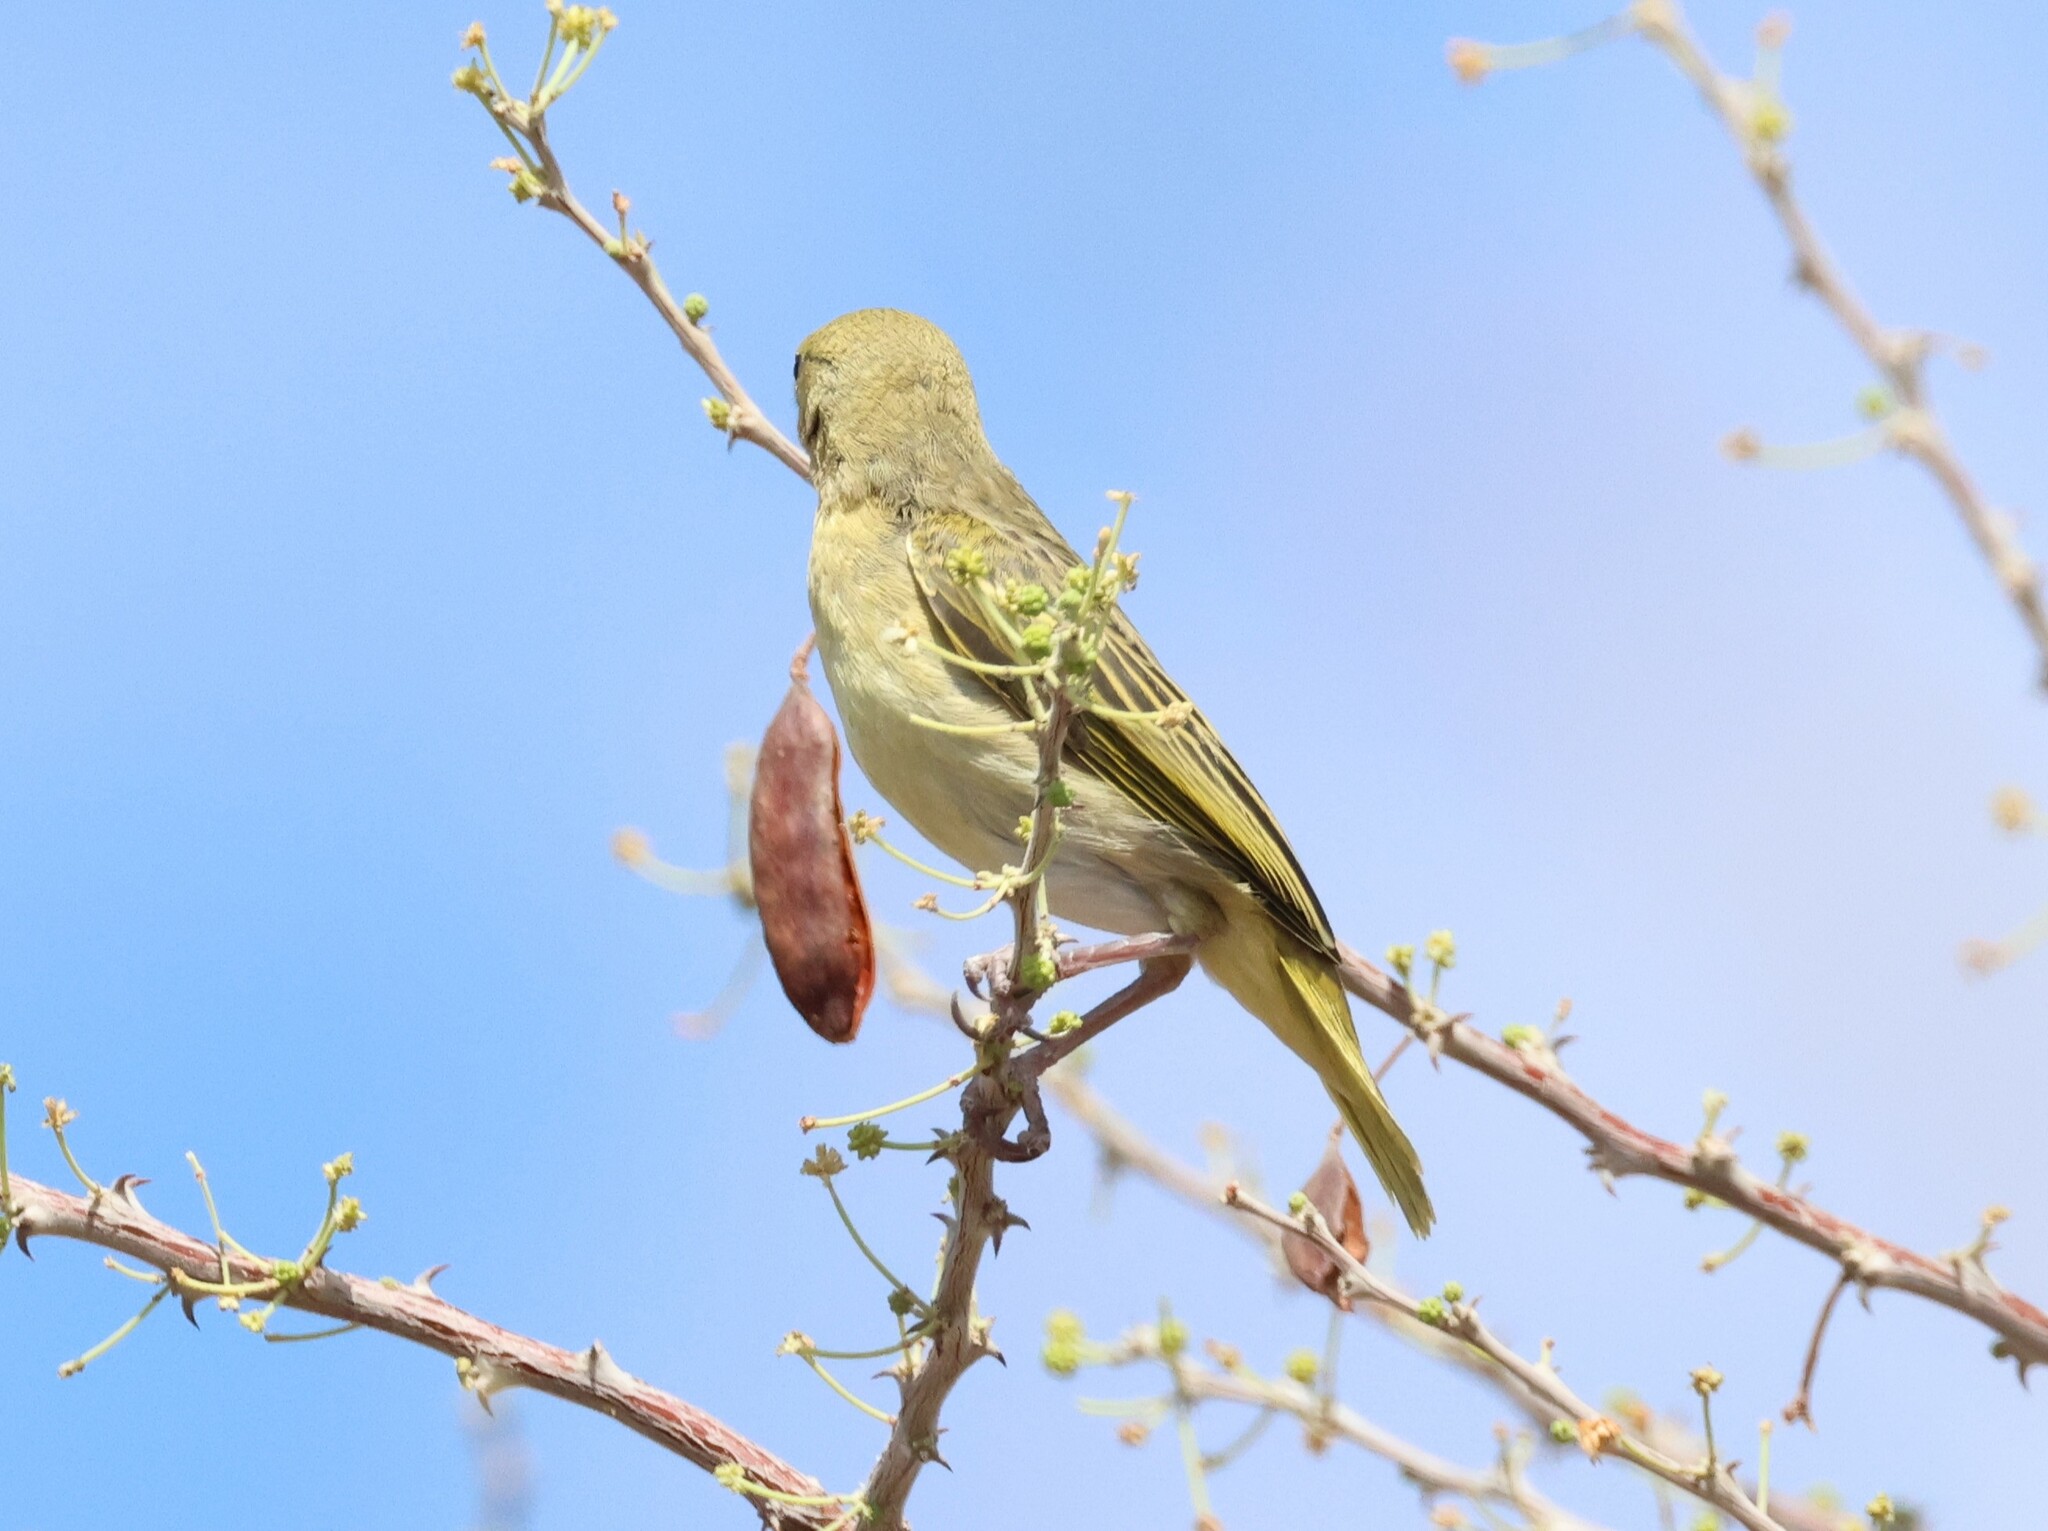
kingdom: Animalia
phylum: Chordata
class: Aves
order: Passeriformes
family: Ploceidae
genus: Ploceus
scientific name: Ploceus velatus
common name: Southern masked weaver
